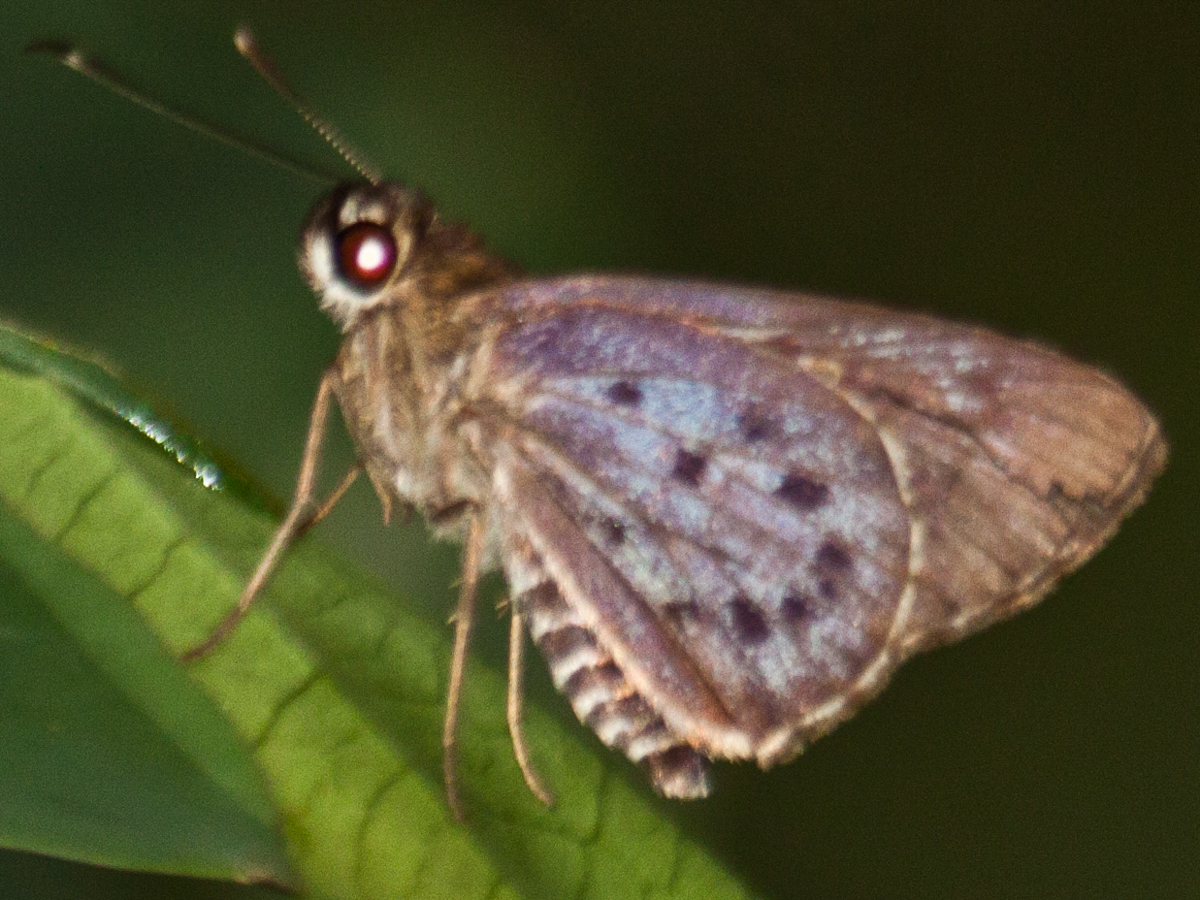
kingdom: Animalia
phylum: Arthropoda
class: Insecta
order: Lepidoptera
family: Hesperiidae
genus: Salanoemia
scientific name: Salanoemia sala
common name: Maculate lancer
